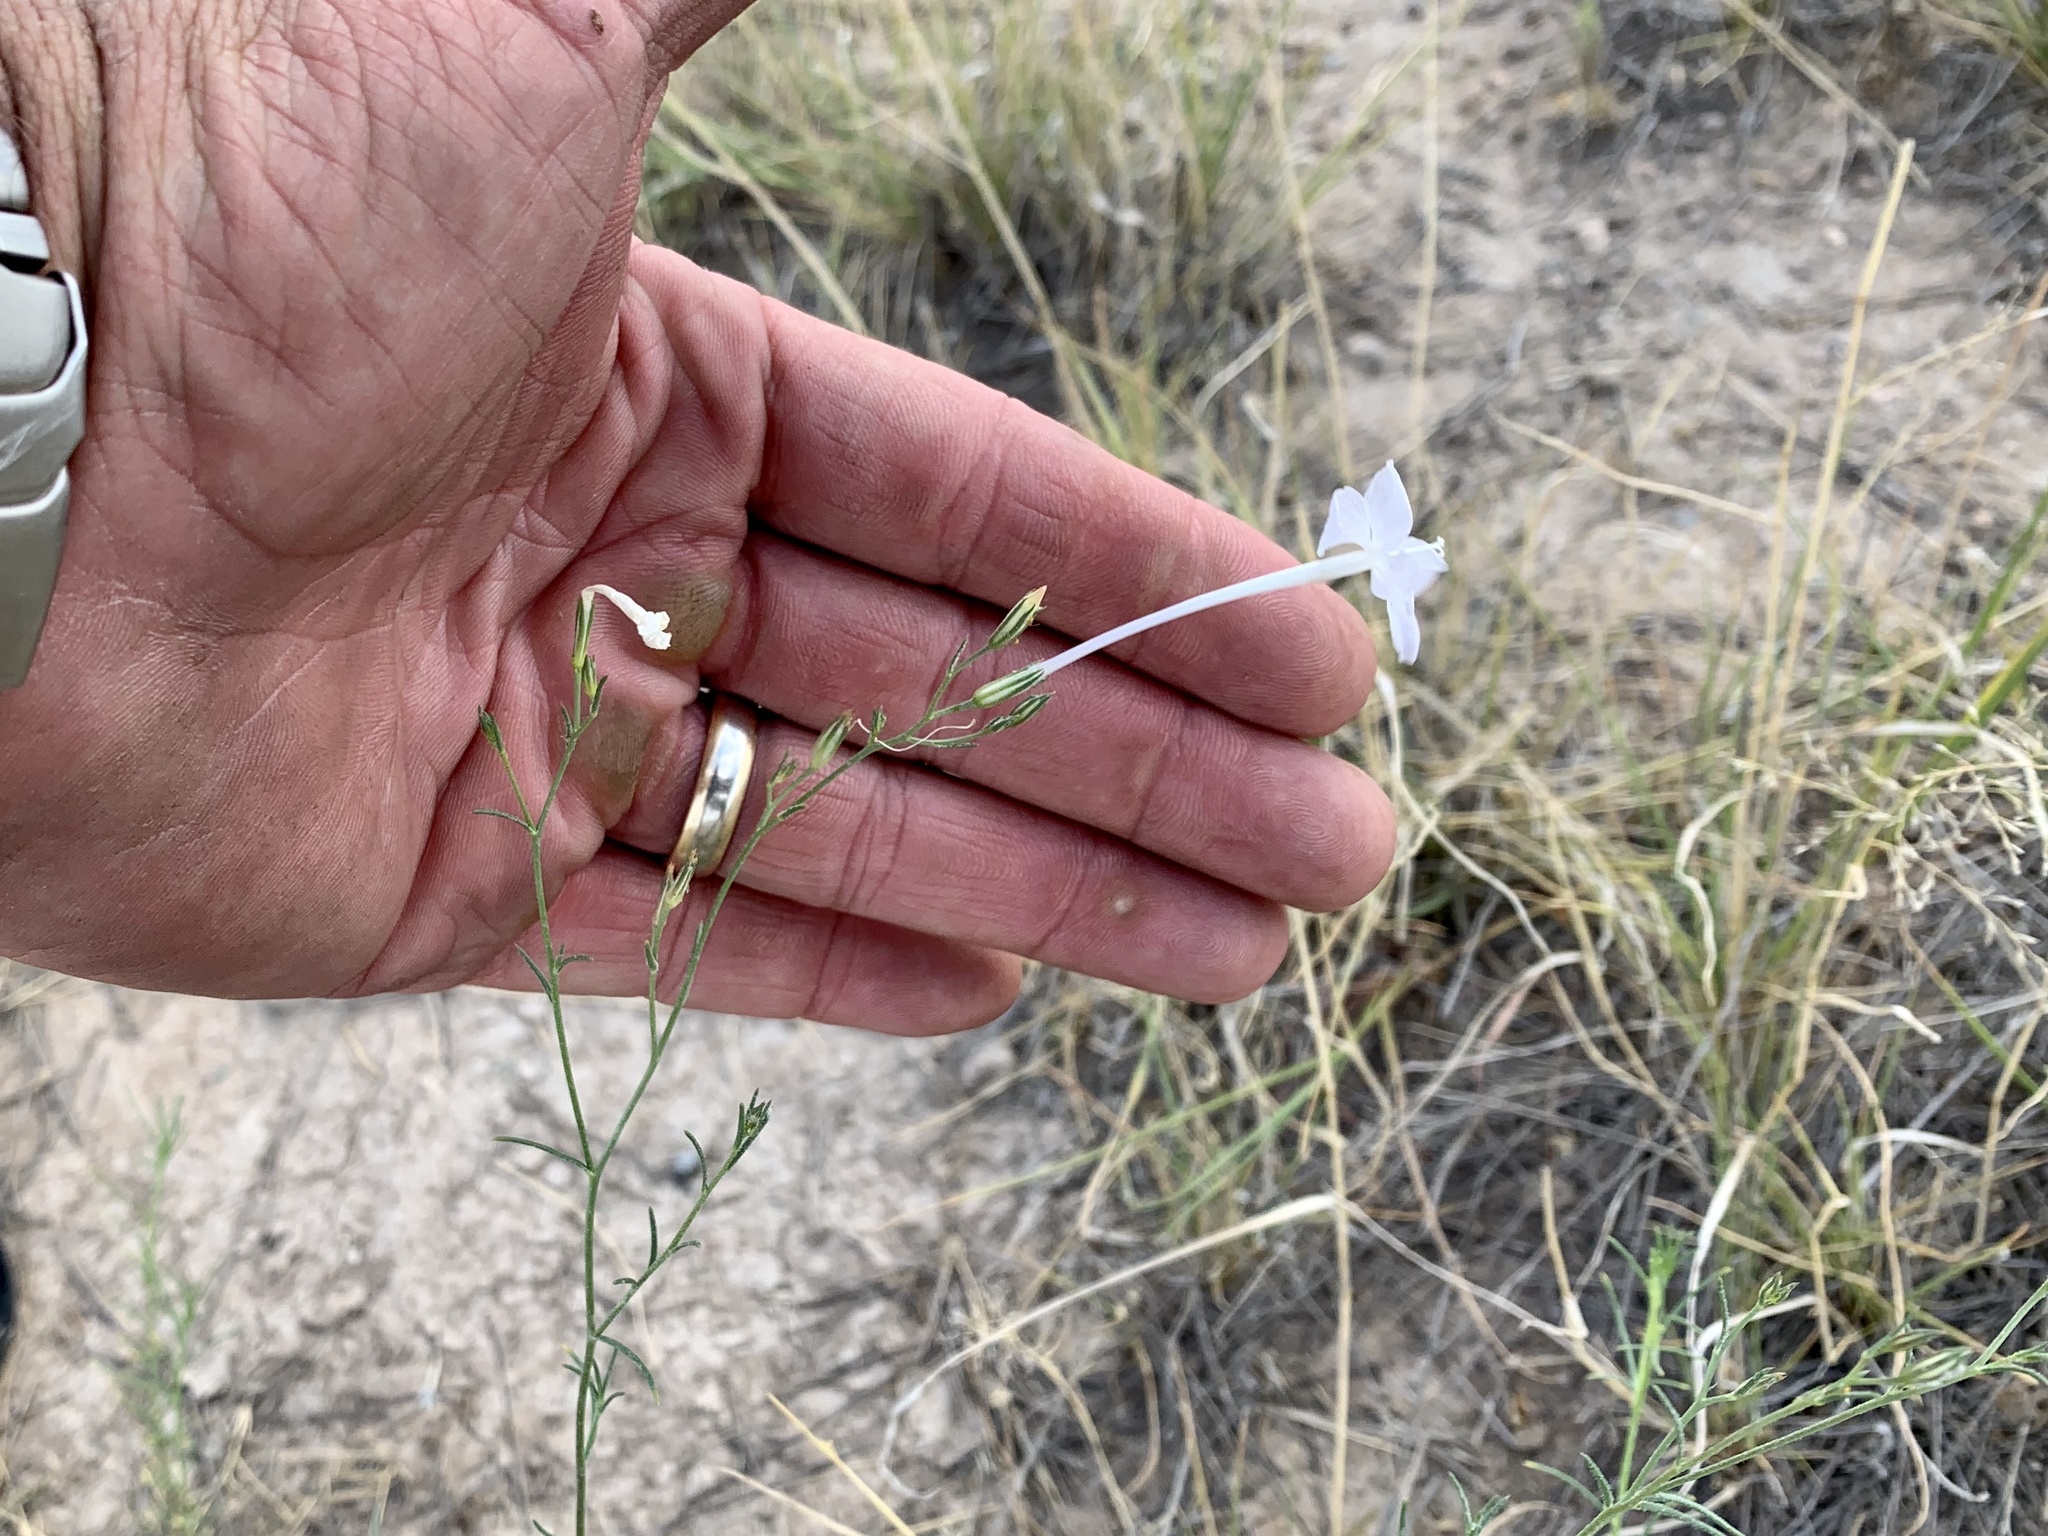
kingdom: Plantae
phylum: Tracheophyta
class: Magnoliopsida
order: Ericales
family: Polemoniaceae
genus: Ipomopsis
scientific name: Ipomopsis longiflora
